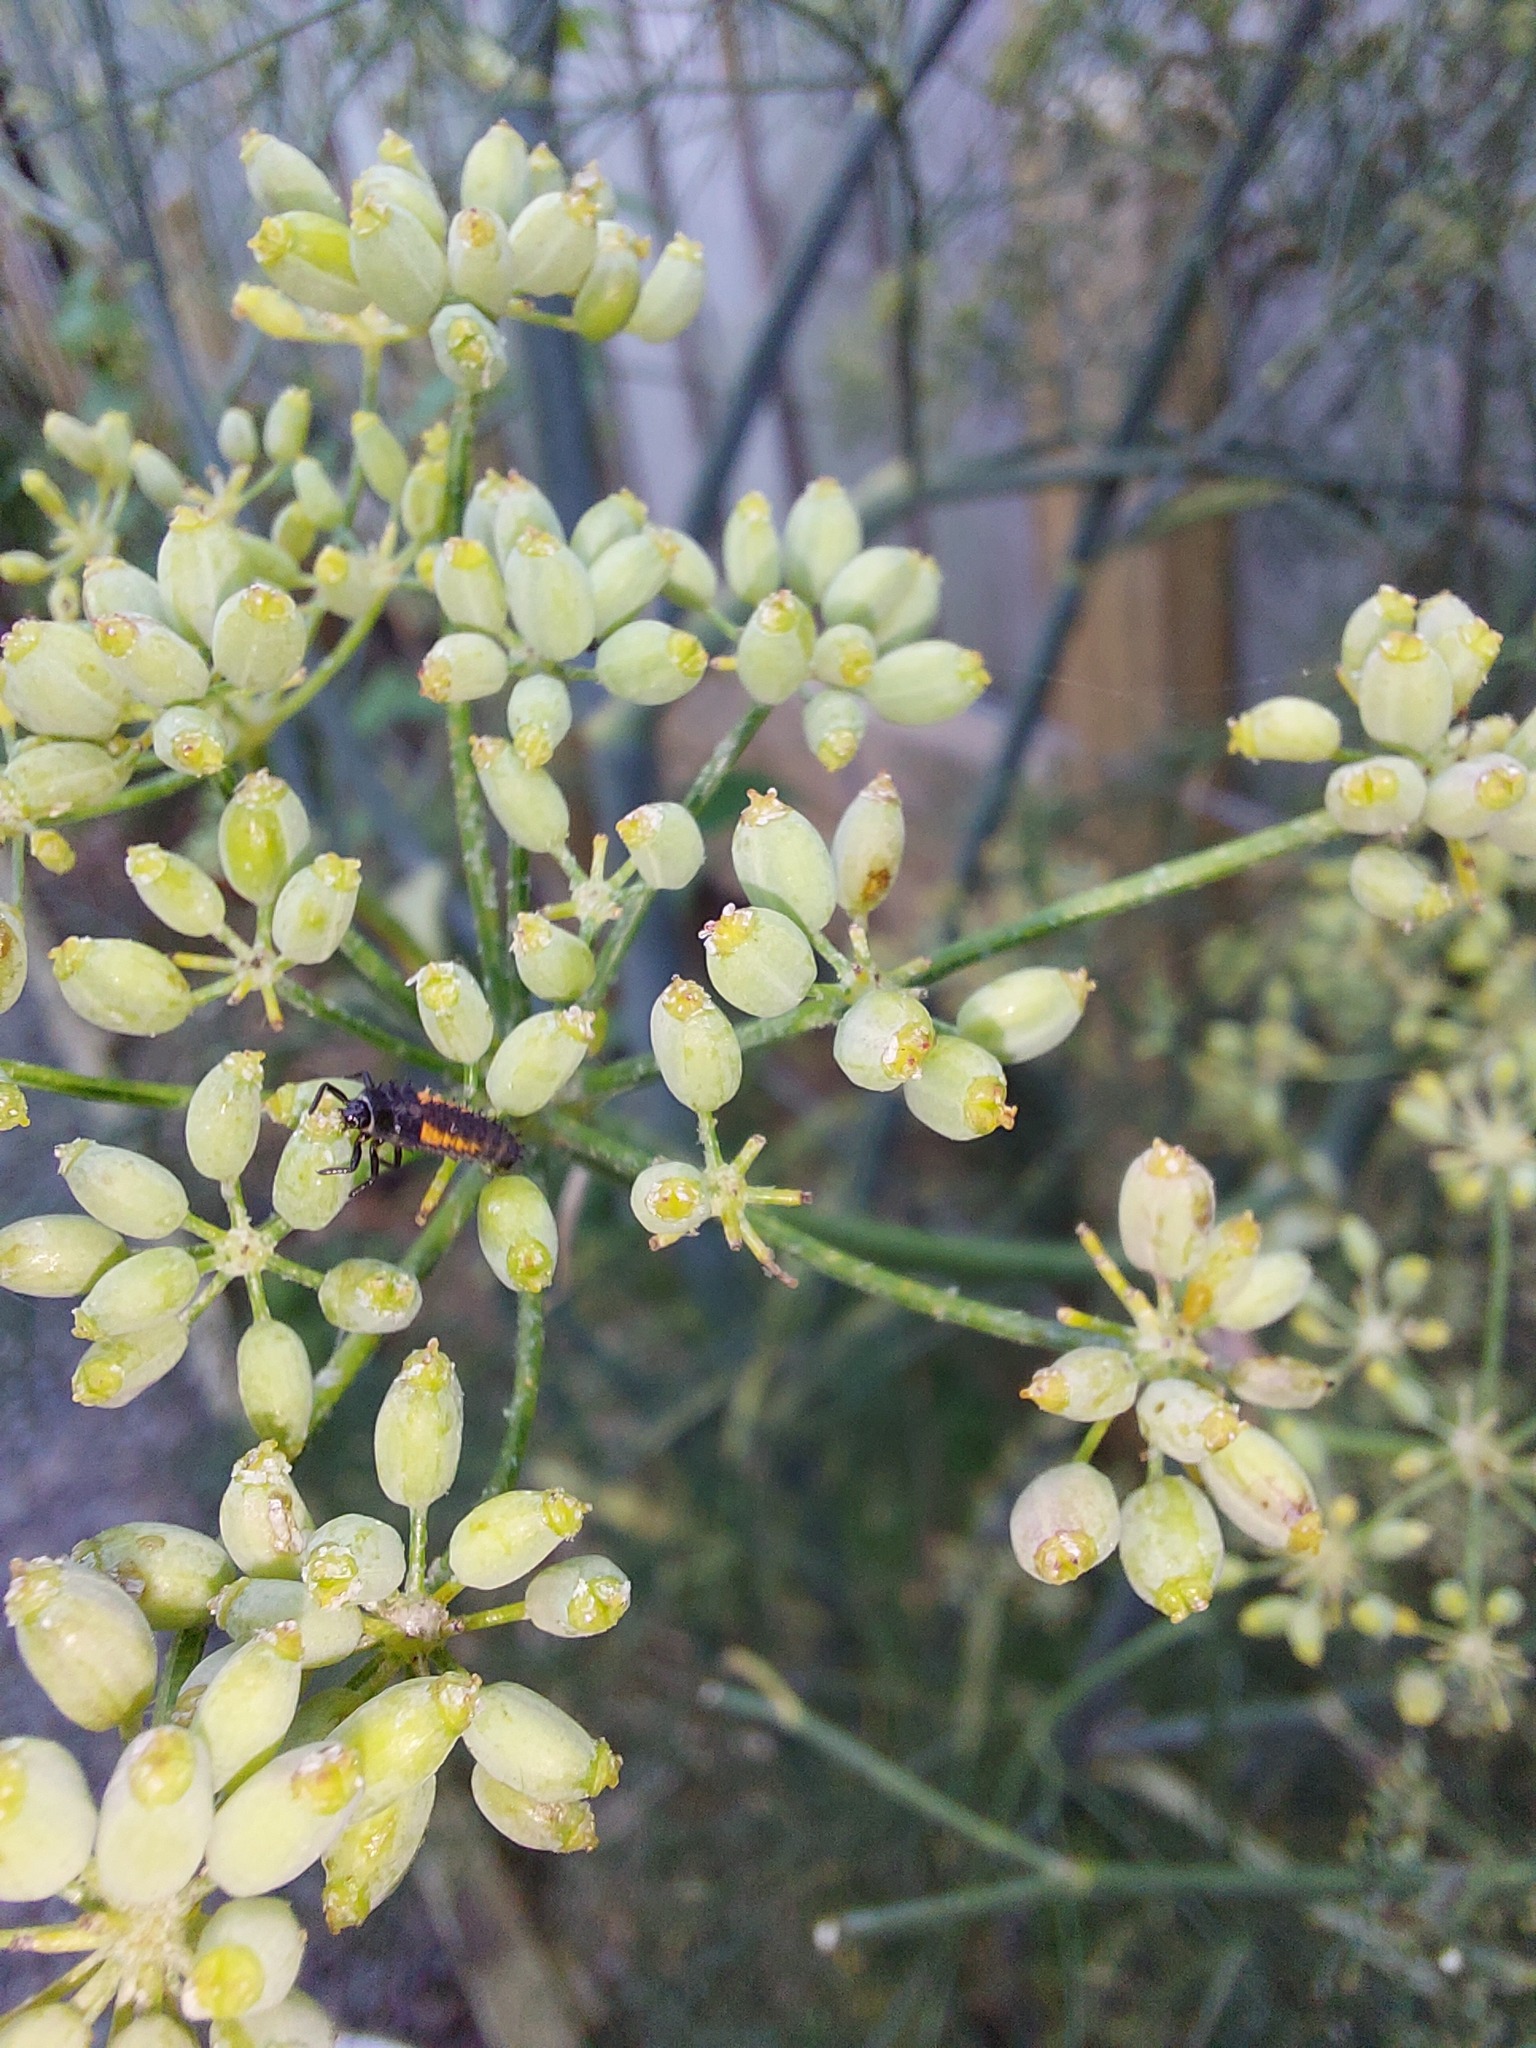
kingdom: Plantae
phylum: Tracheophyta
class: Magnoliopsida
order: Apiales
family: Apiaceae
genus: Foeniculum
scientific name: Foeniculum vulgare
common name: Fennel
